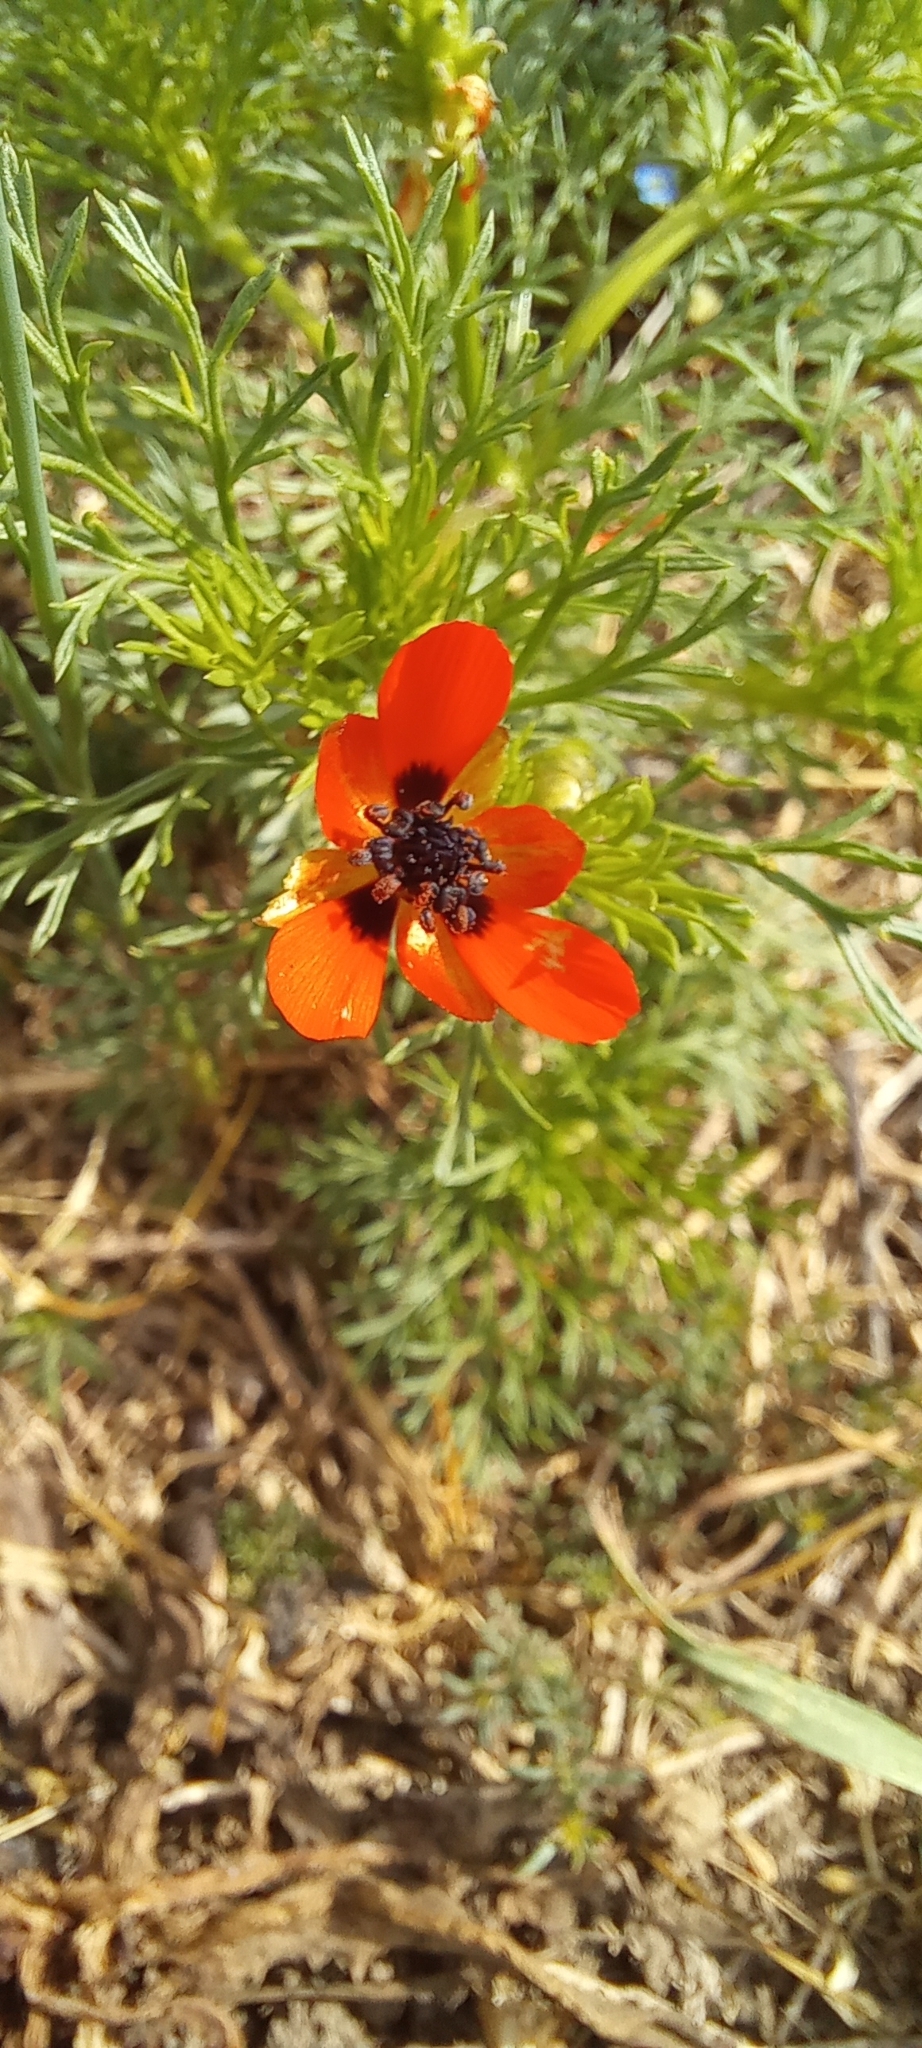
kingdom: Plantae
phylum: Tracheophyta
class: Magnoliopsida
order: Ranunculales
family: Ranunculaceae
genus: Adonis
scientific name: Adonis aestivalis
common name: Summer pheasant's-eye
